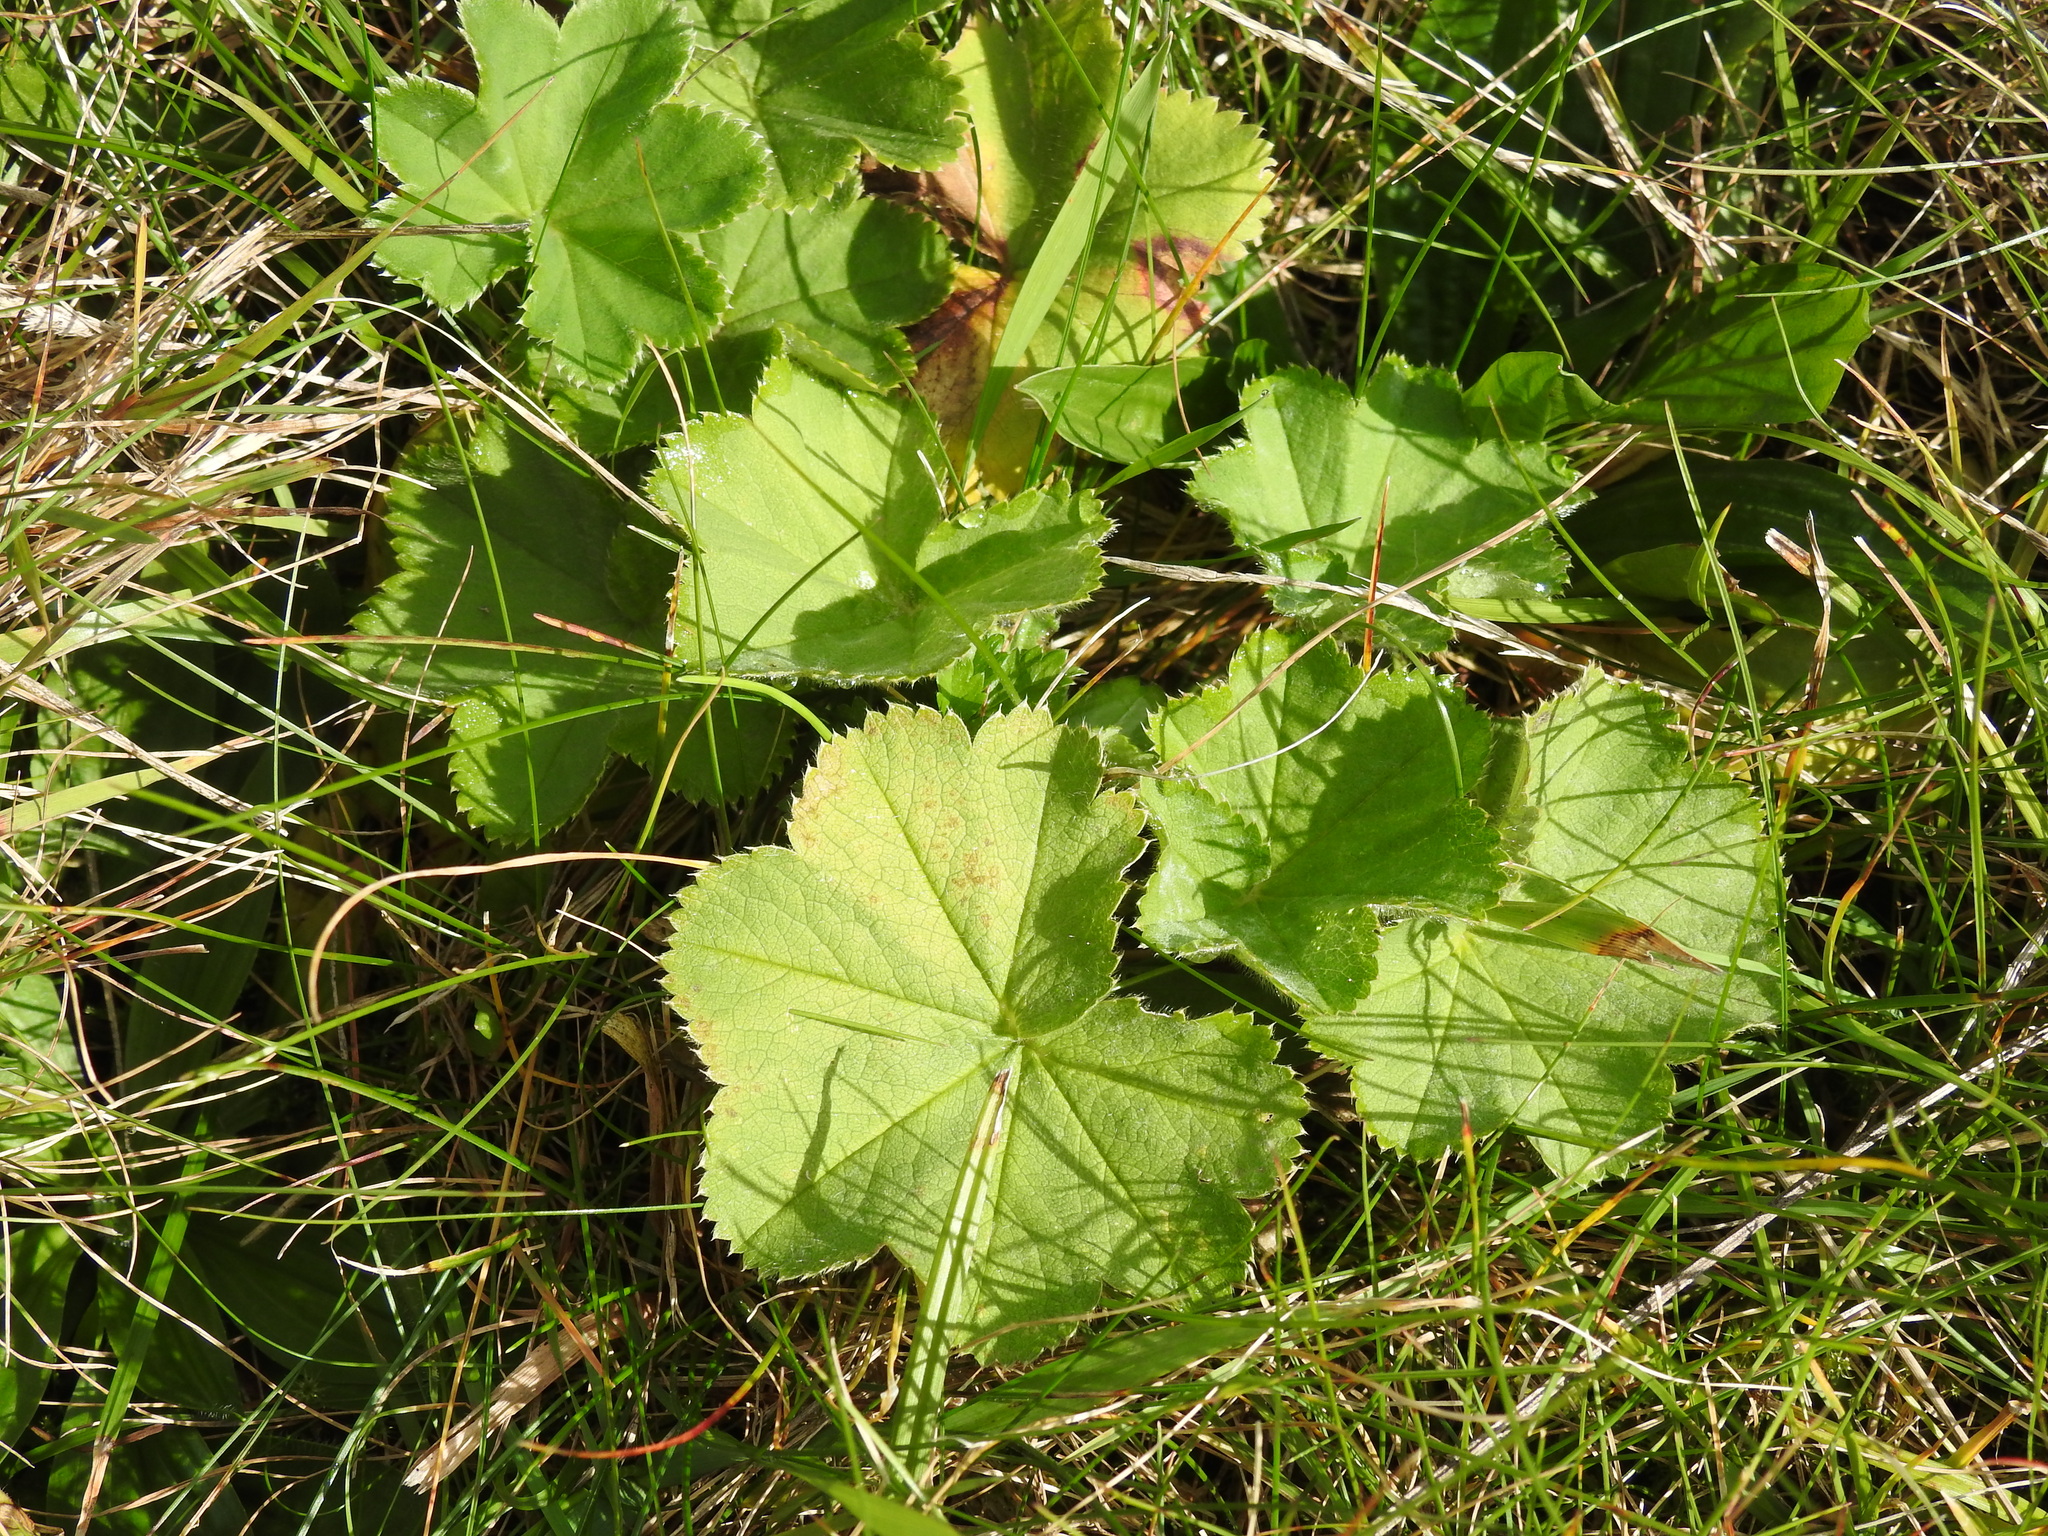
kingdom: Plantae
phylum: Tracheophyta
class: Magnoliopsida
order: Rosales
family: Rosaceae
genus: Alchemilla
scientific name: Alchemilla monticola
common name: Hairy lady's mantle
